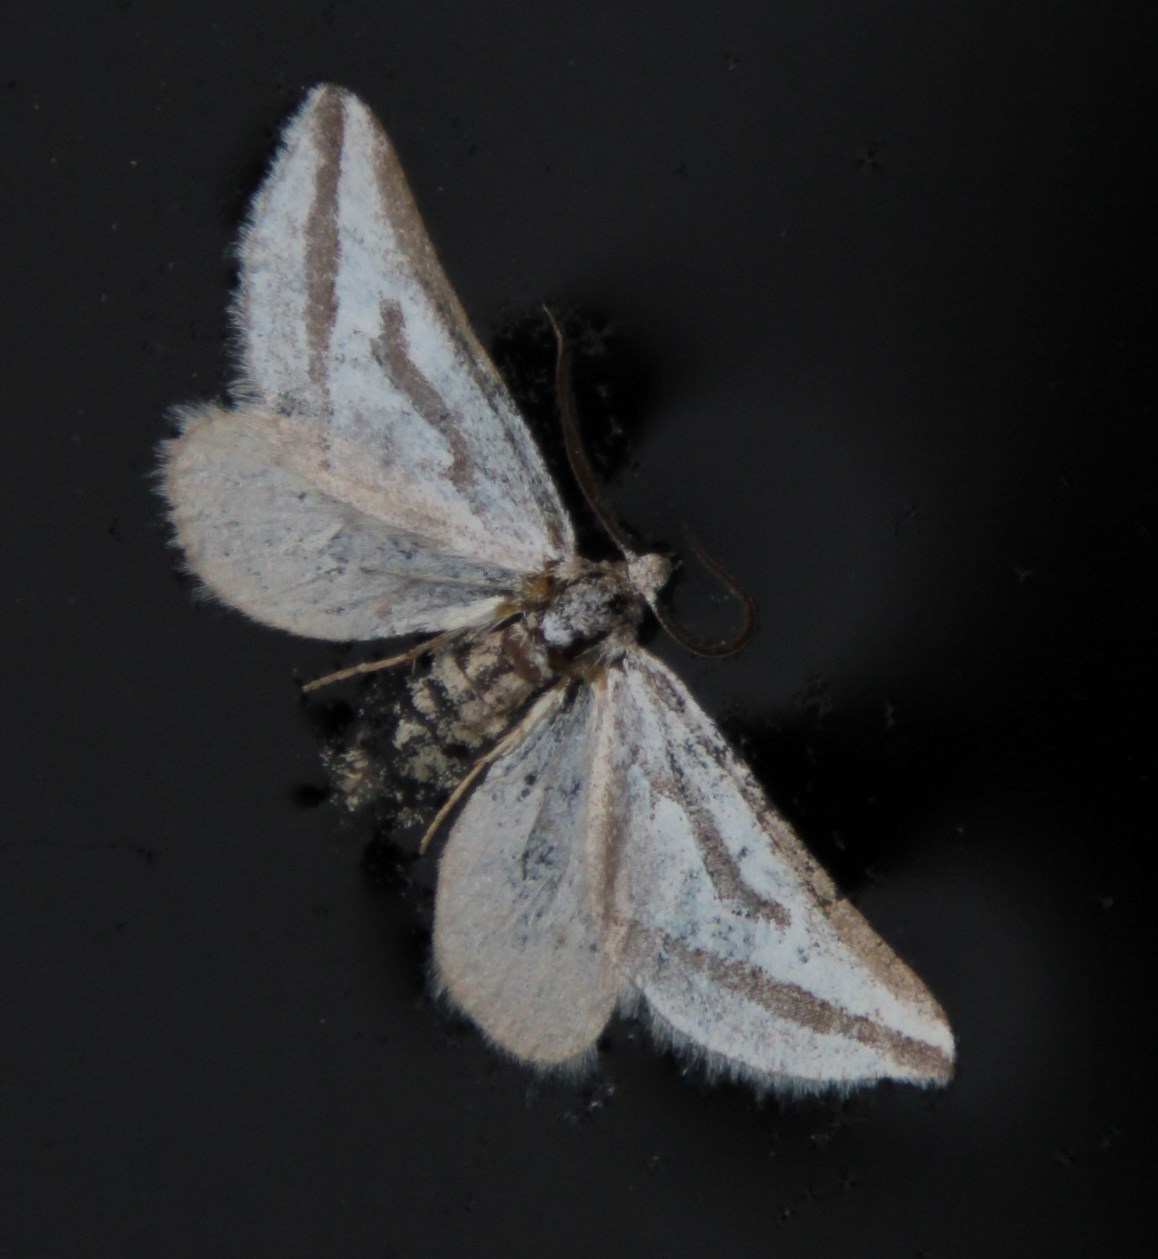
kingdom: Animalia
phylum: Arthropoda
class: Insecta
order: Lepidoptera
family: Geometridae
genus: Conchylia
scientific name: Conchylia nitidula
